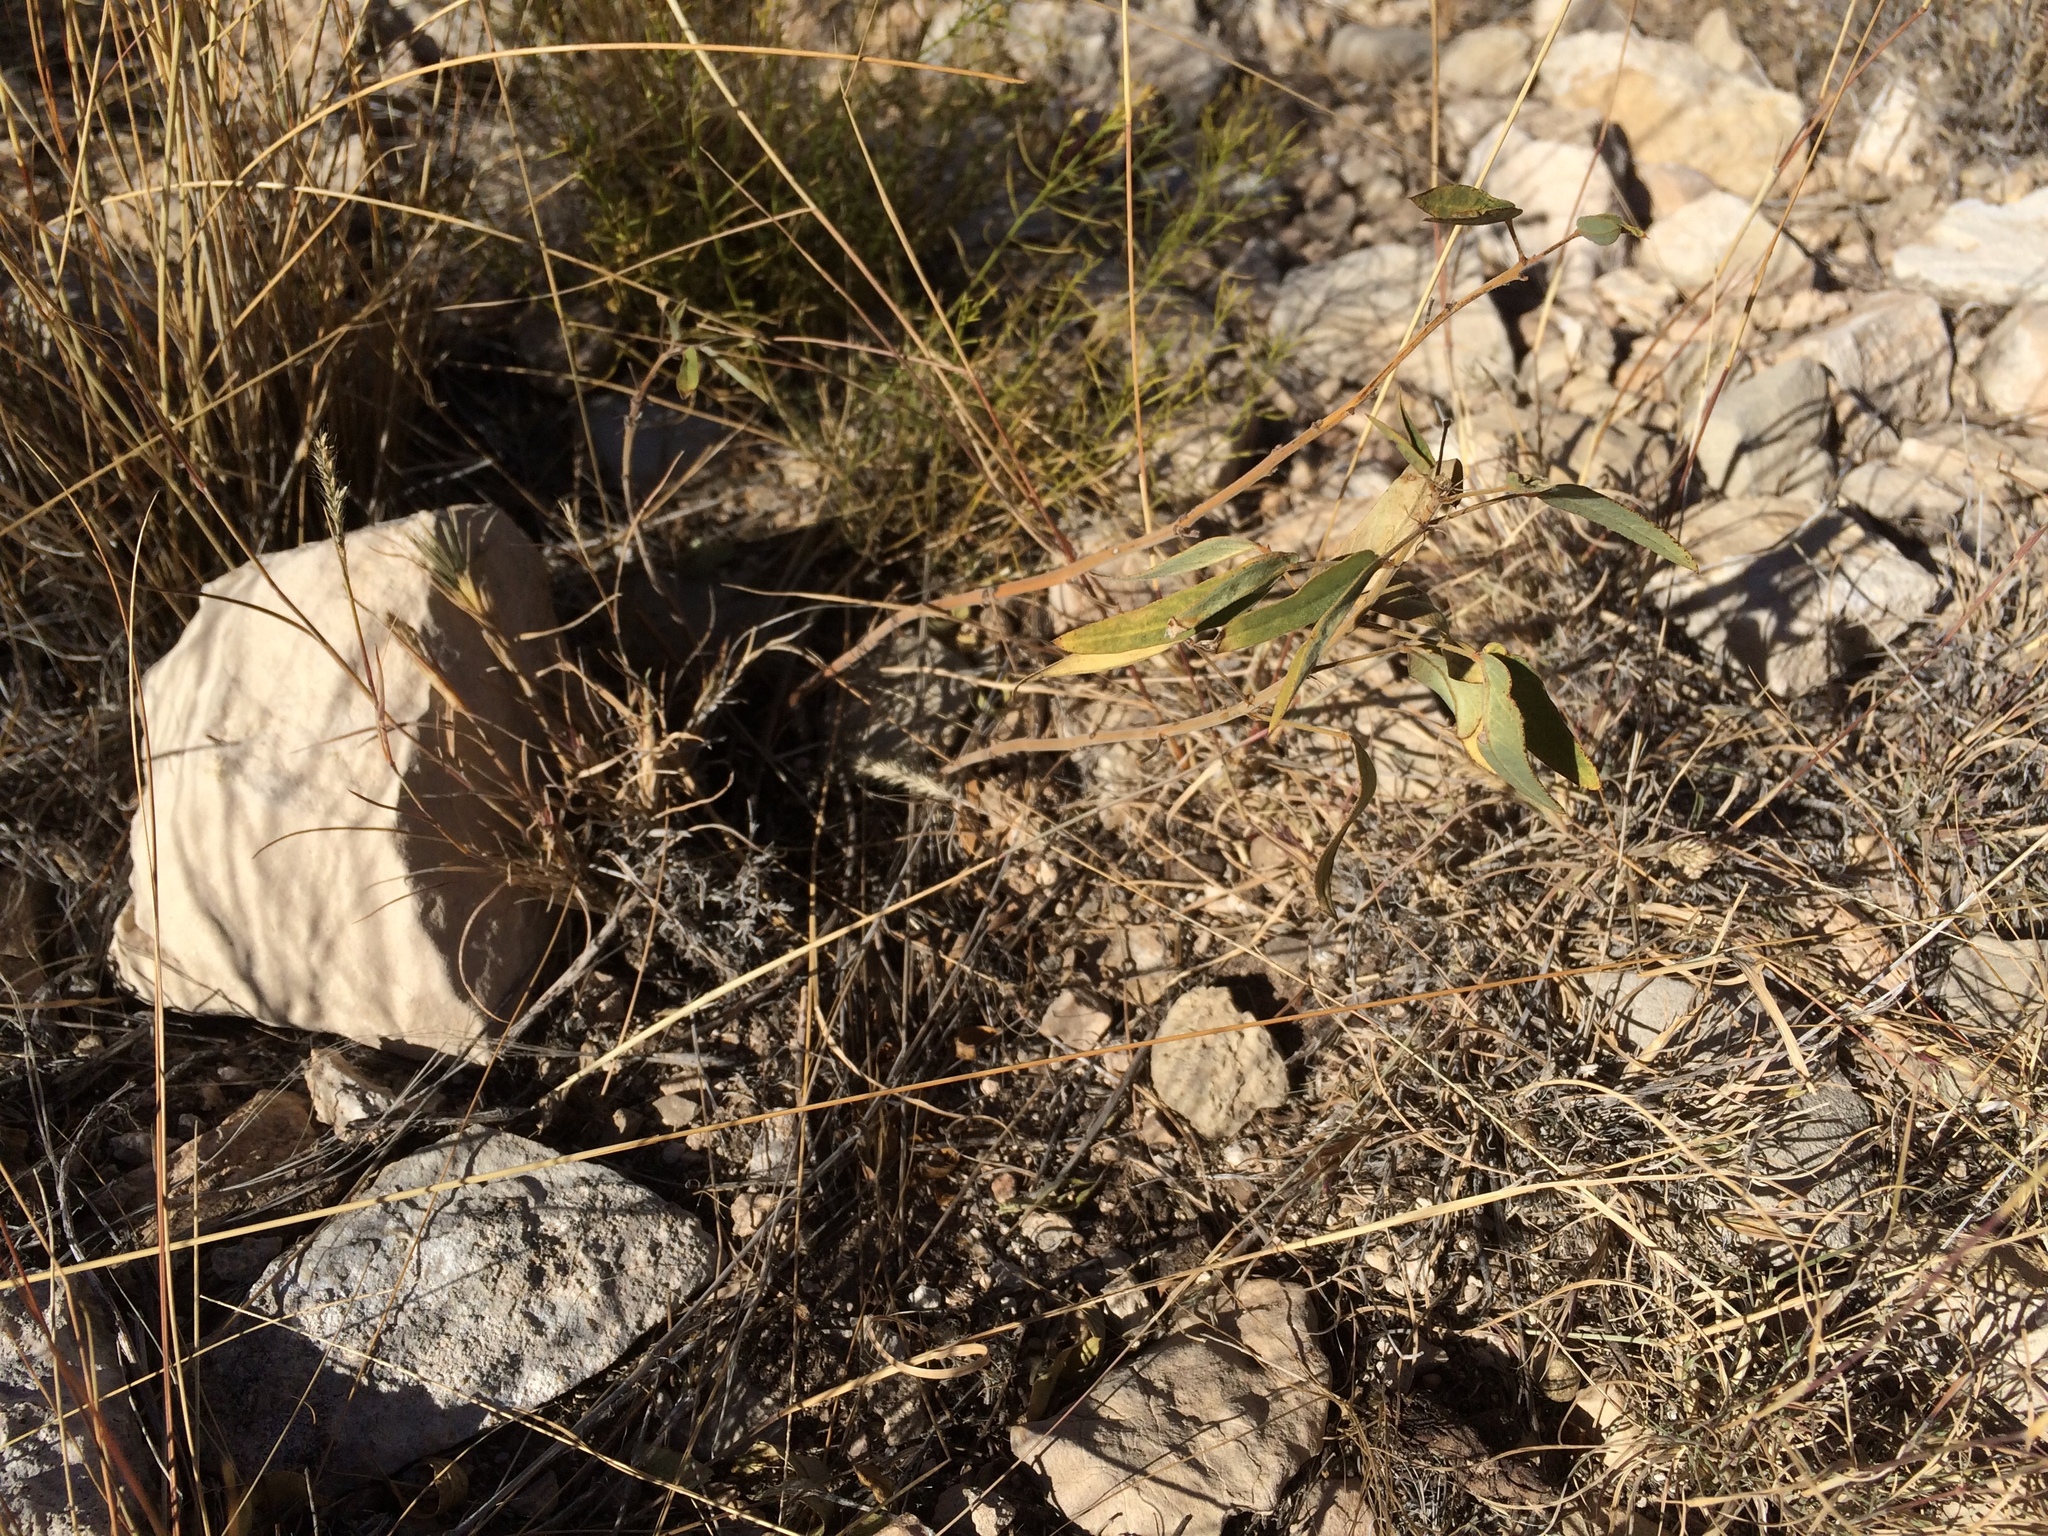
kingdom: Plantae
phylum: Tracheophyta
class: Magnoliopsida
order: Fabales
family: Fabaceae
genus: Senna
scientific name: Senna roemeriana
